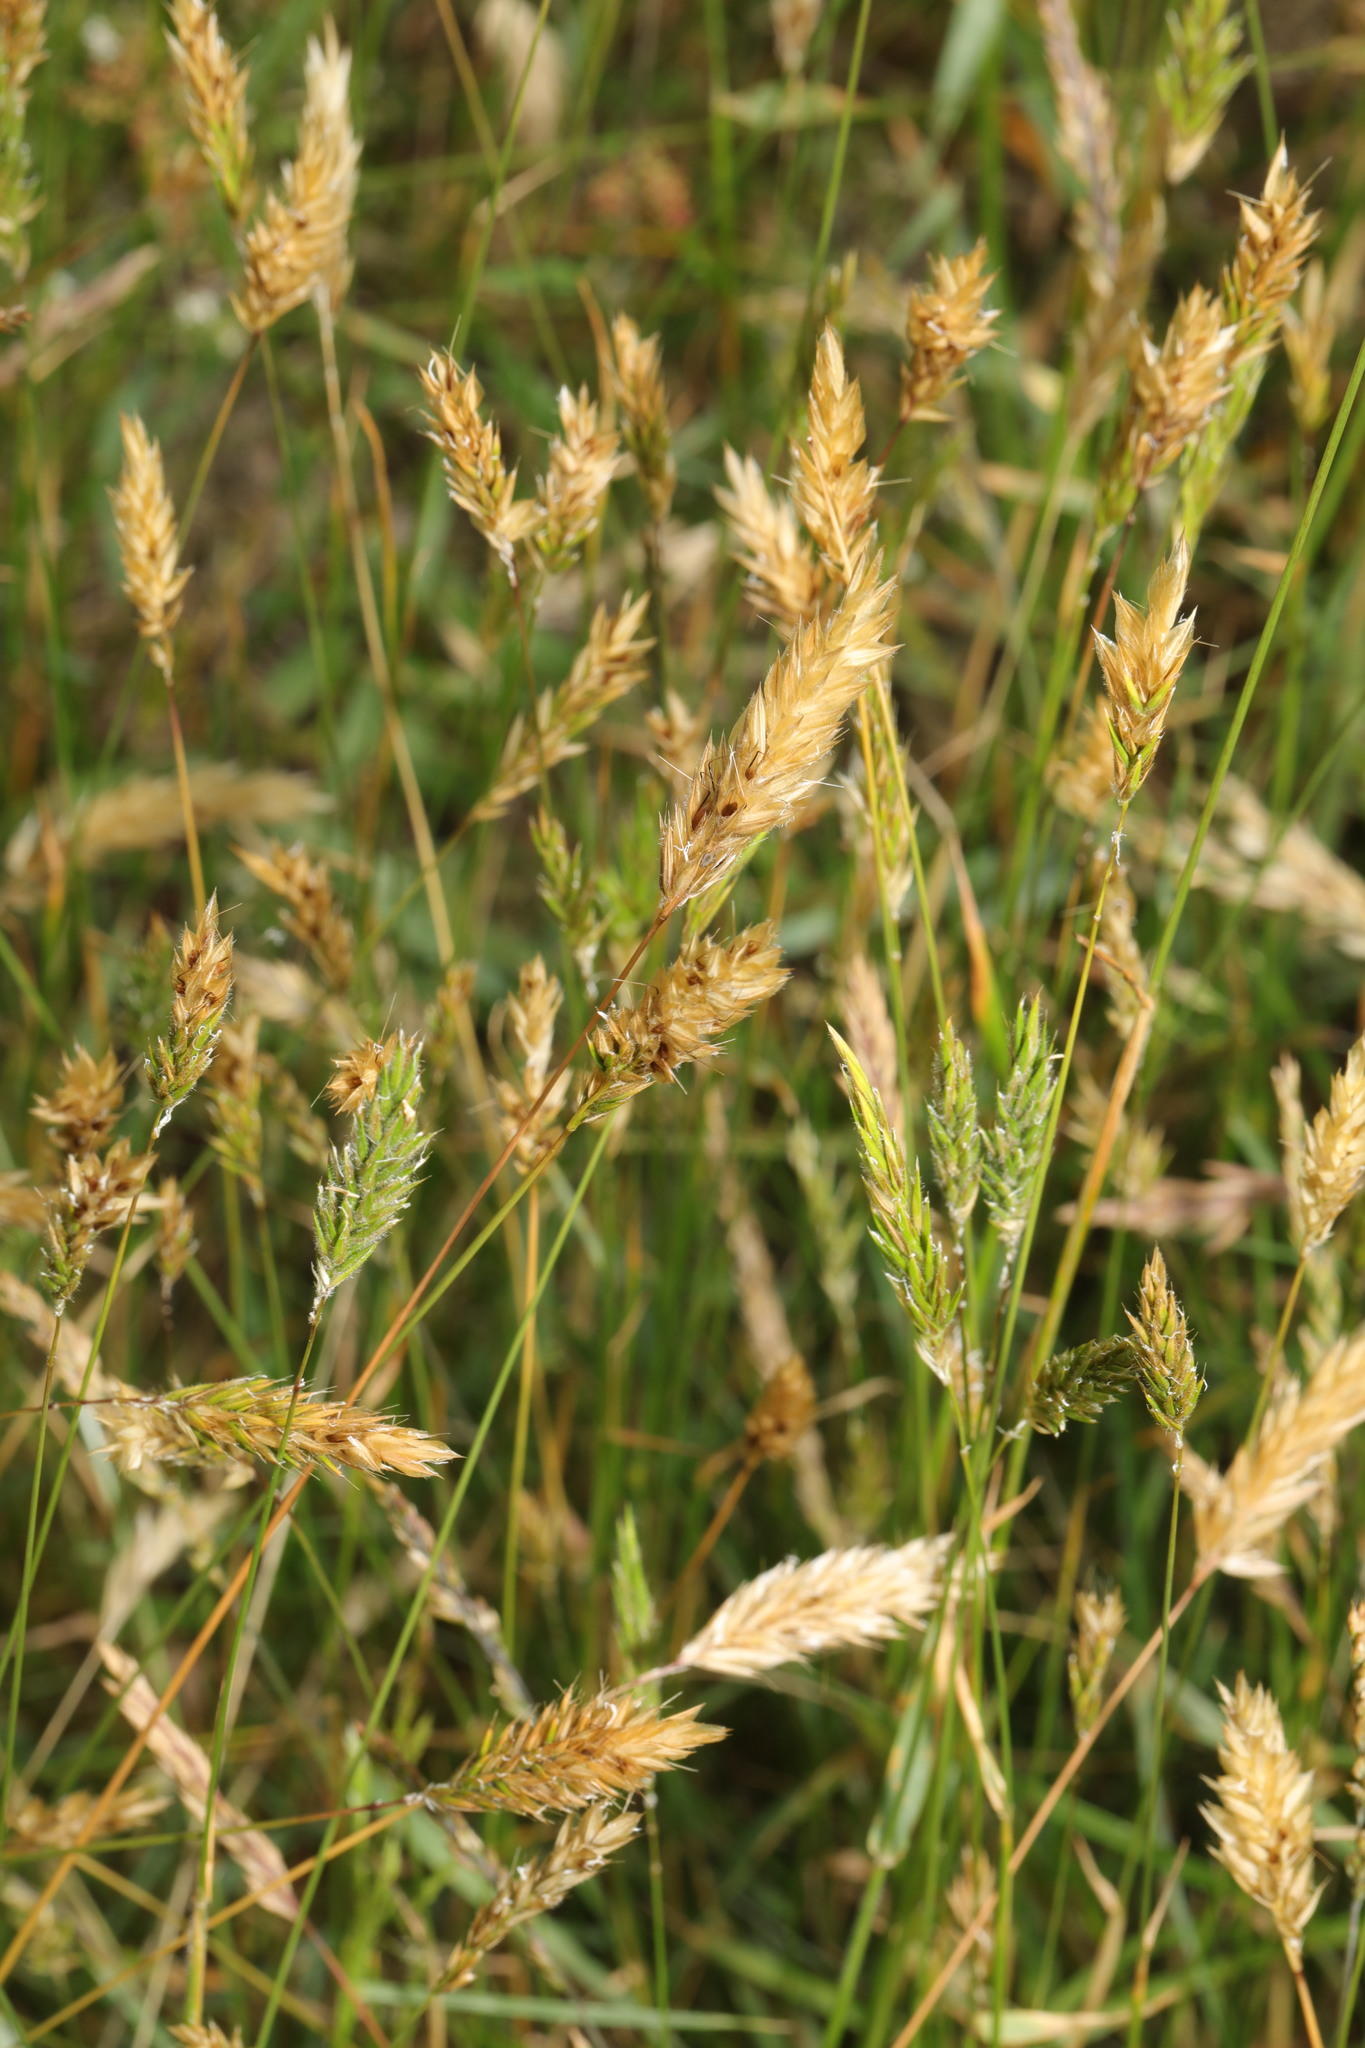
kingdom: Plantae
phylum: Tracheophyta
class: Liliopsida
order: Poales
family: Poaceae
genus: Anthoxanthum
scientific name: Anthoxanthum odoratum
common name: Sweet vernalgrass
